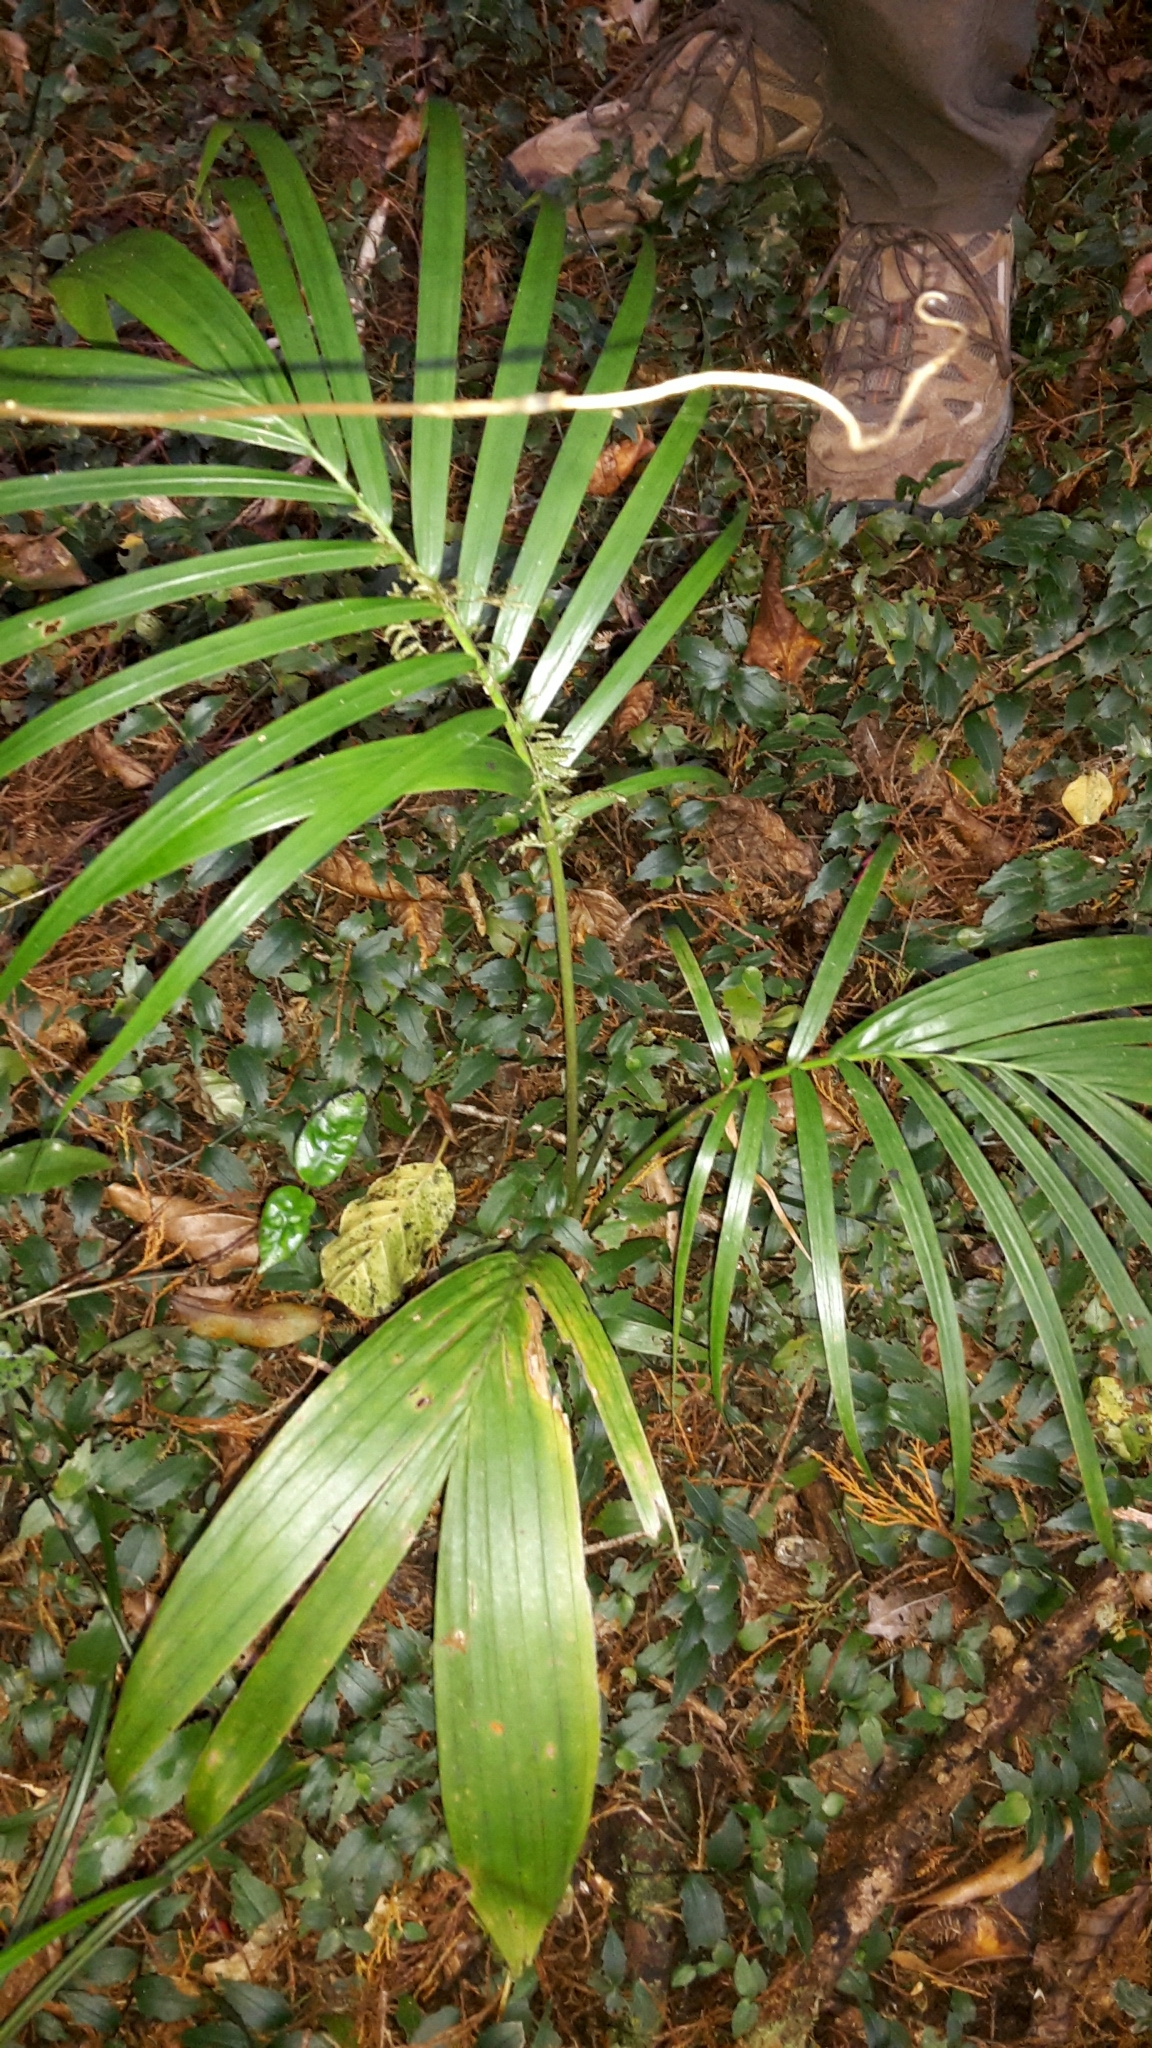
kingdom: Plantae
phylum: Tracheophyta
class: Liliopsida
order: Arecales
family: Arecaceae
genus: Archontophoenix
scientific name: Archontophoenix cunninghamiana
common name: Piccabeen bangalow palm
